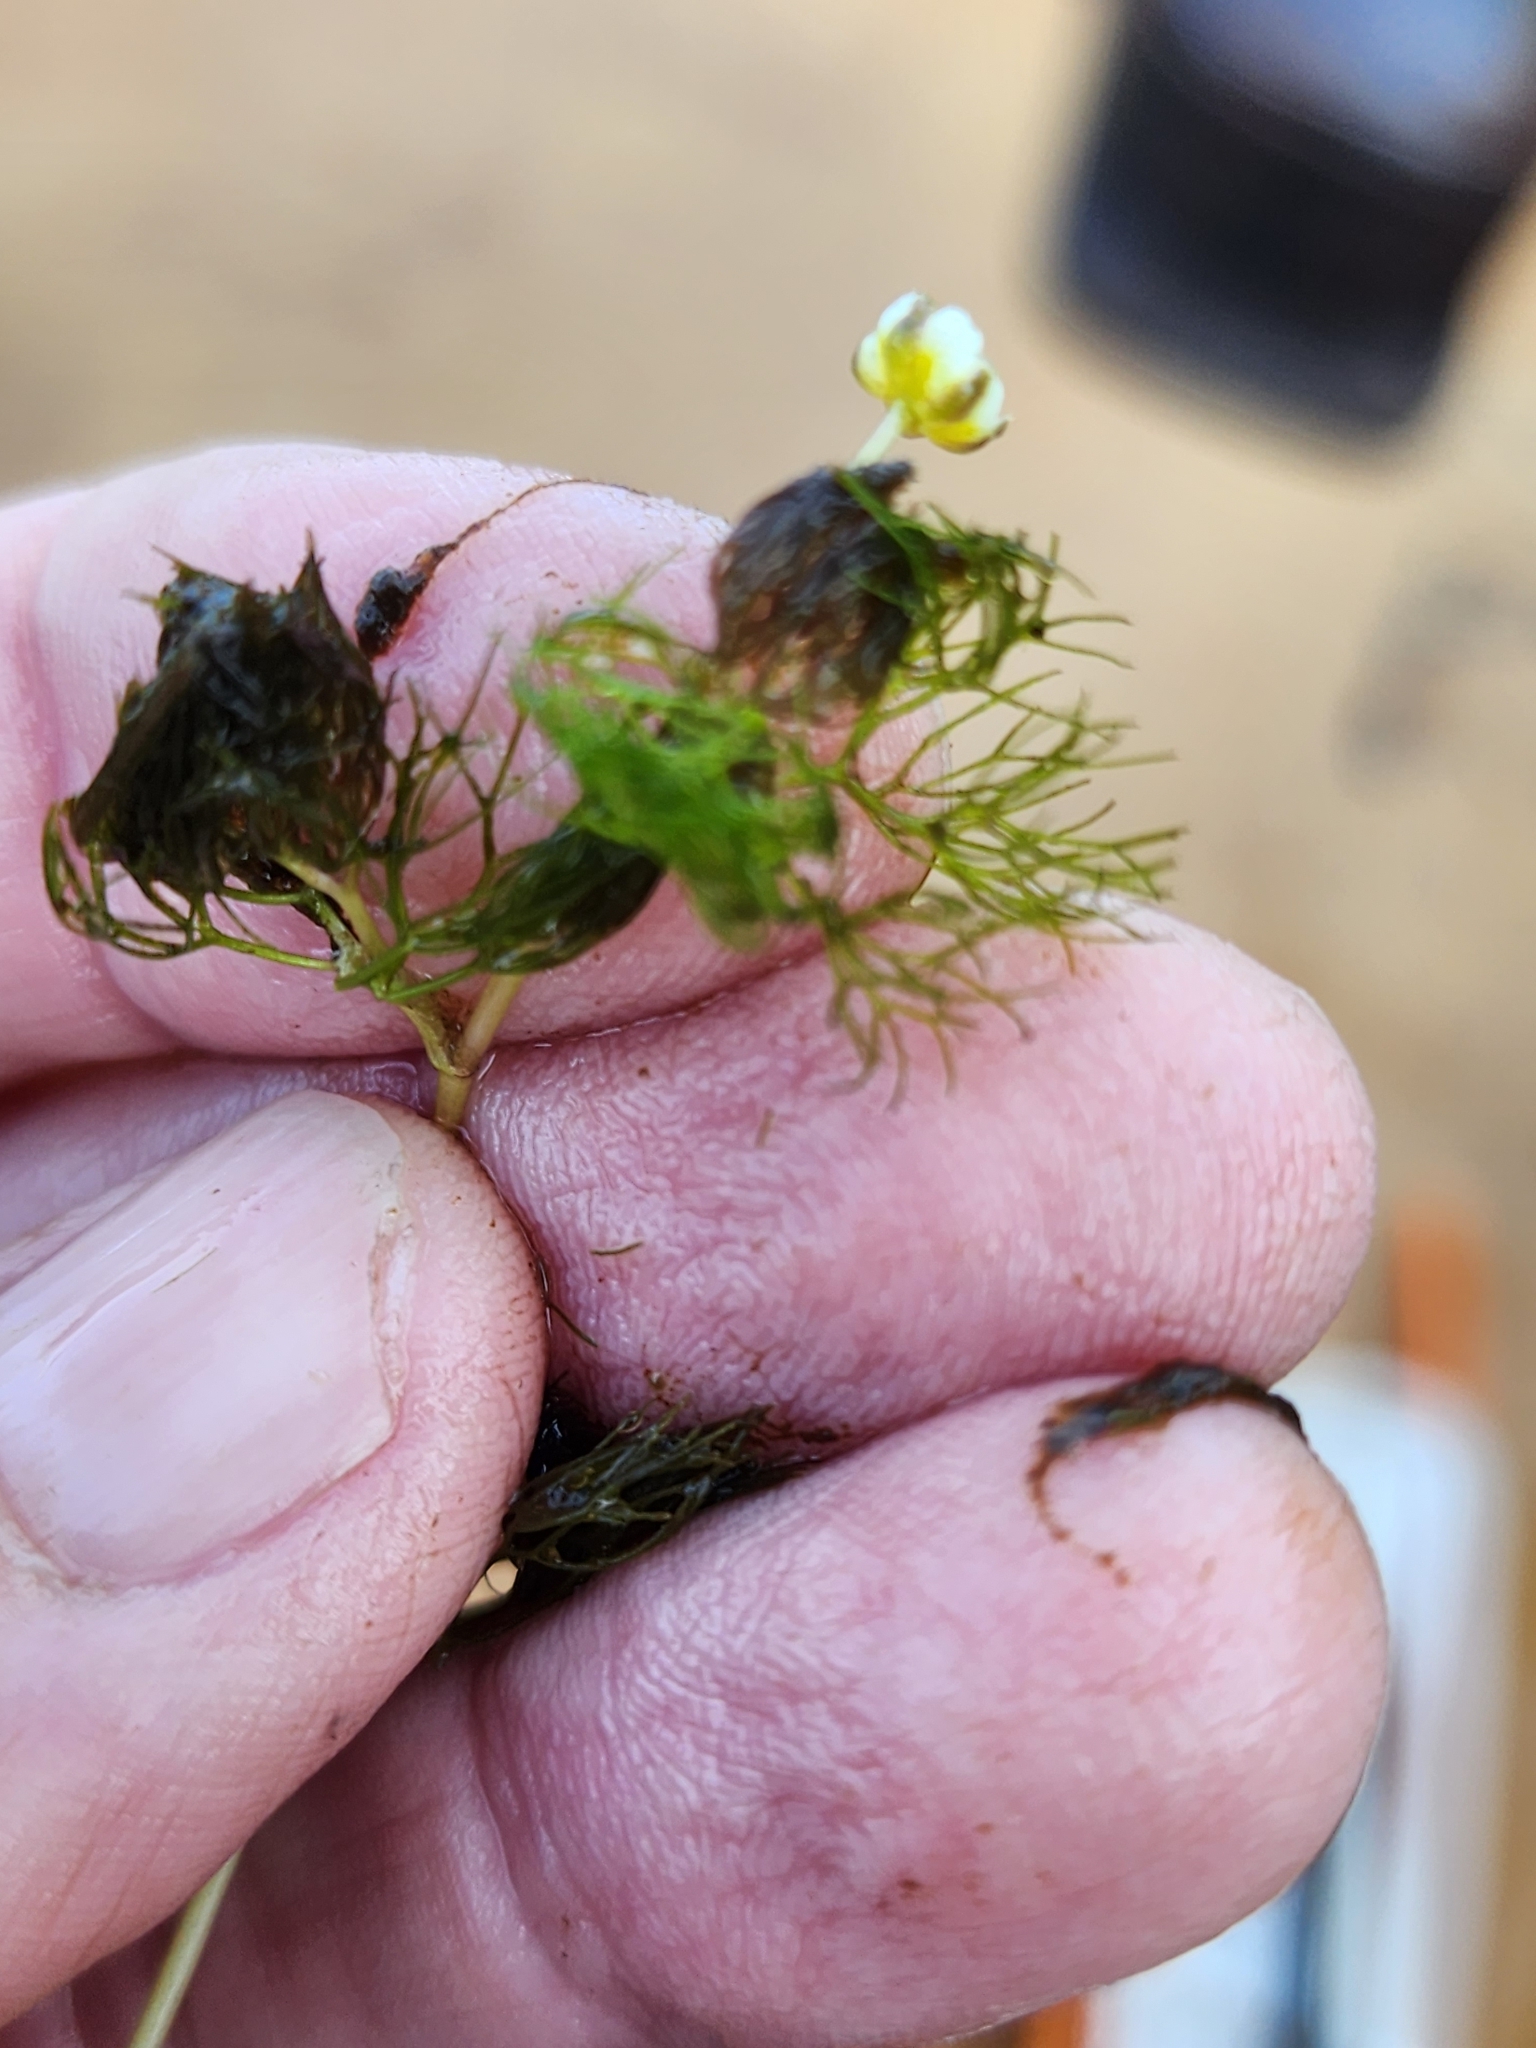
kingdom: Plantae
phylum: Tracheophyta
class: Magnoliopsida
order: Ranunculales
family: Ranunculaceae
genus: Ranunculus
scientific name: Ranunculus aquatilis
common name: Common water-crowfoot
